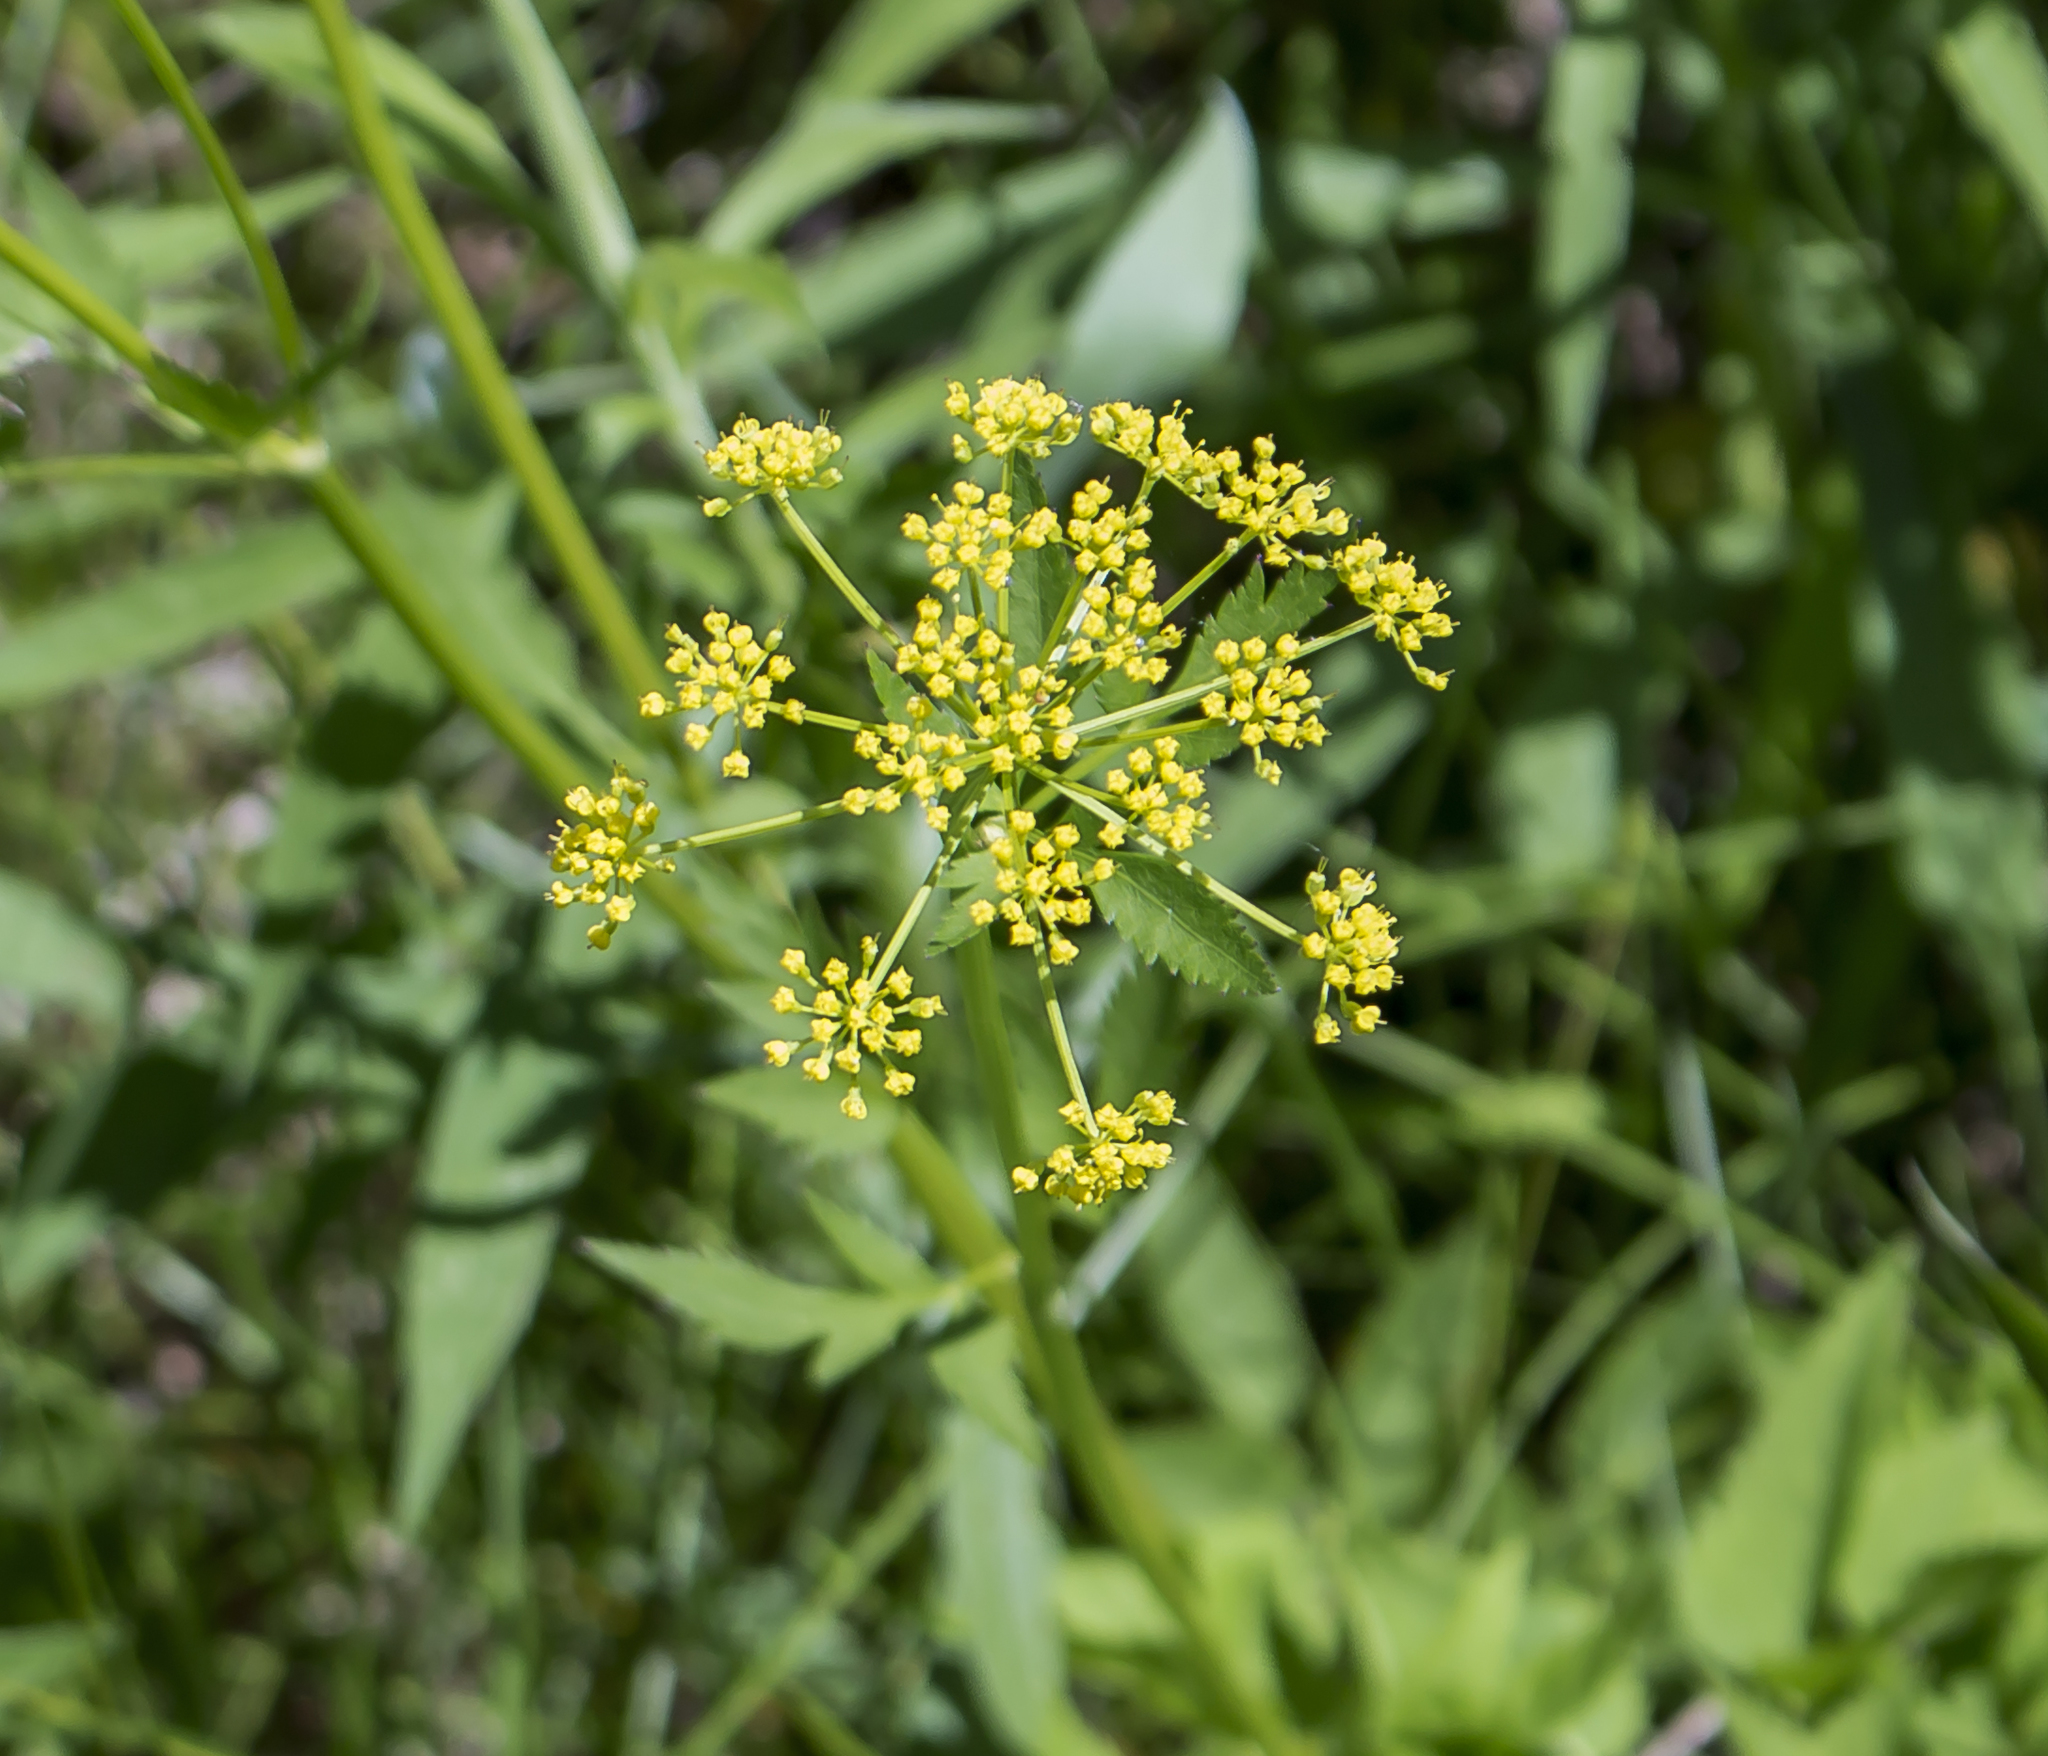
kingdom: Plantae
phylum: Tracheophyta
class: Magnoliopsida
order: Apiales
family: Apiaceae
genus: Zizia
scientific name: Zizia aurea
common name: Golden alexanders
